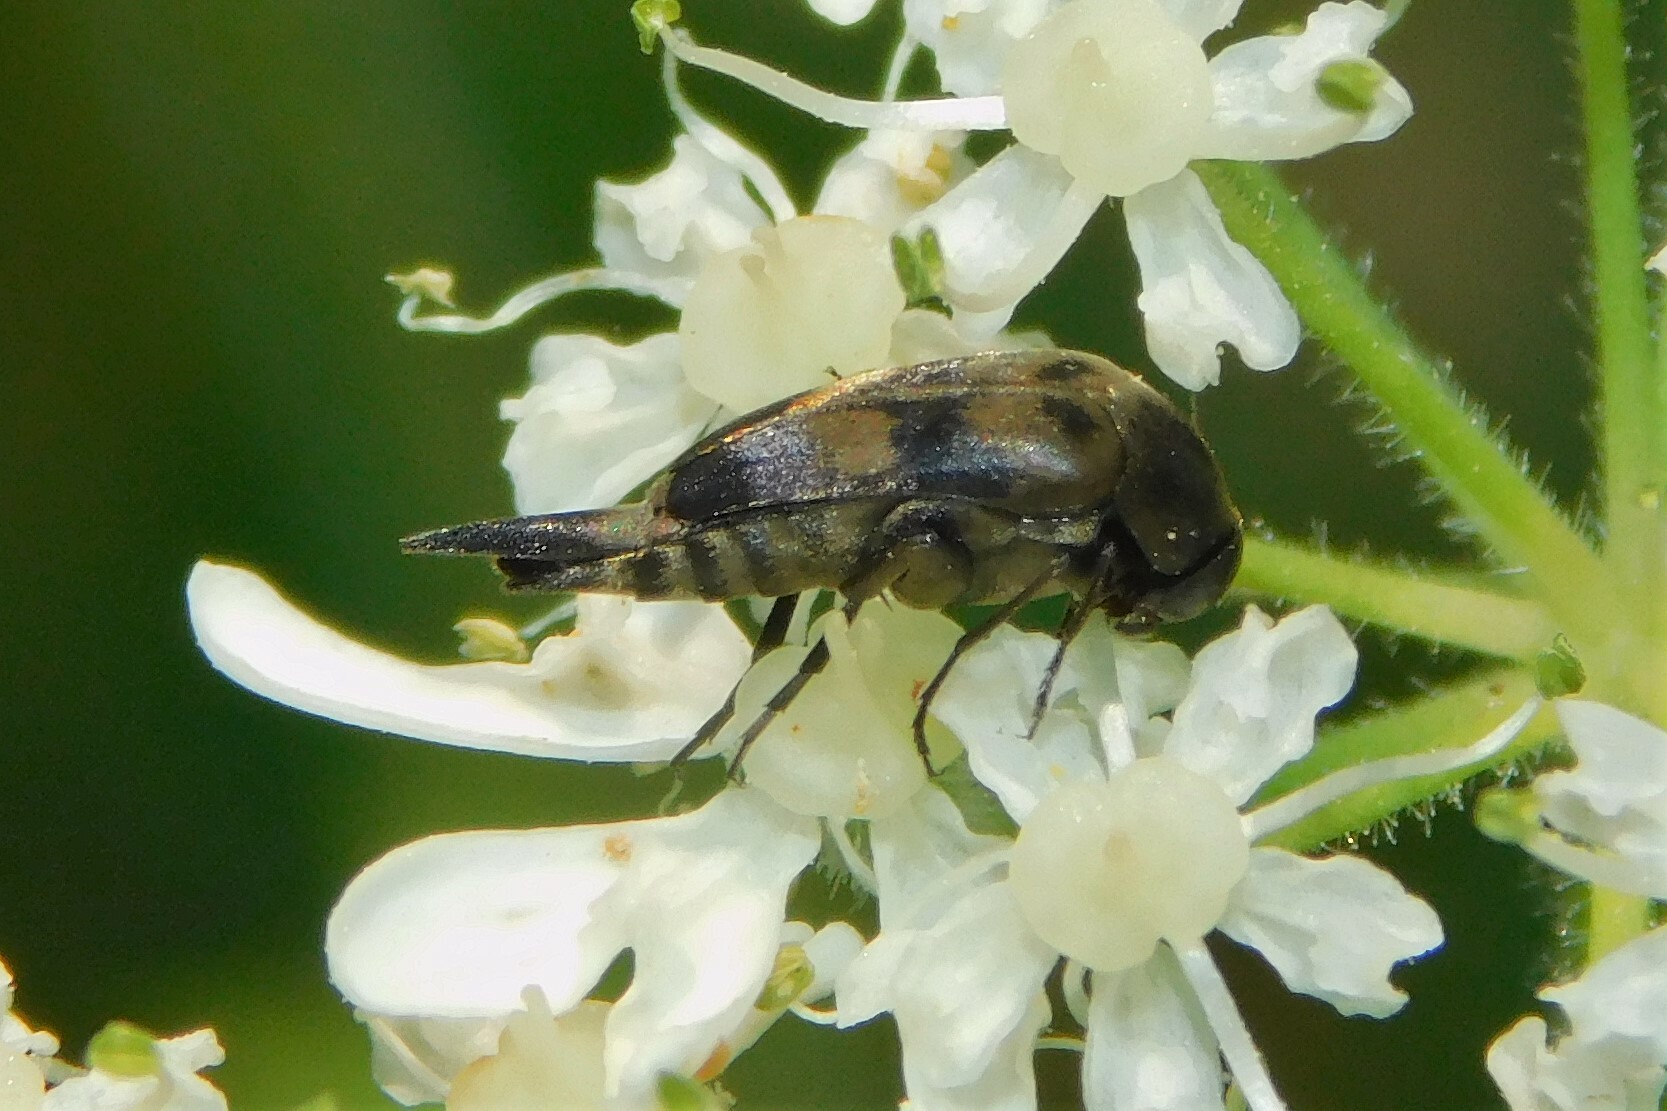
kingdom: Animalia
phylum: Arthropoda
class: Insecta
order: Coleoptera
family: Mordellidae
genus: Variimorda
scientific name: Variimorda
